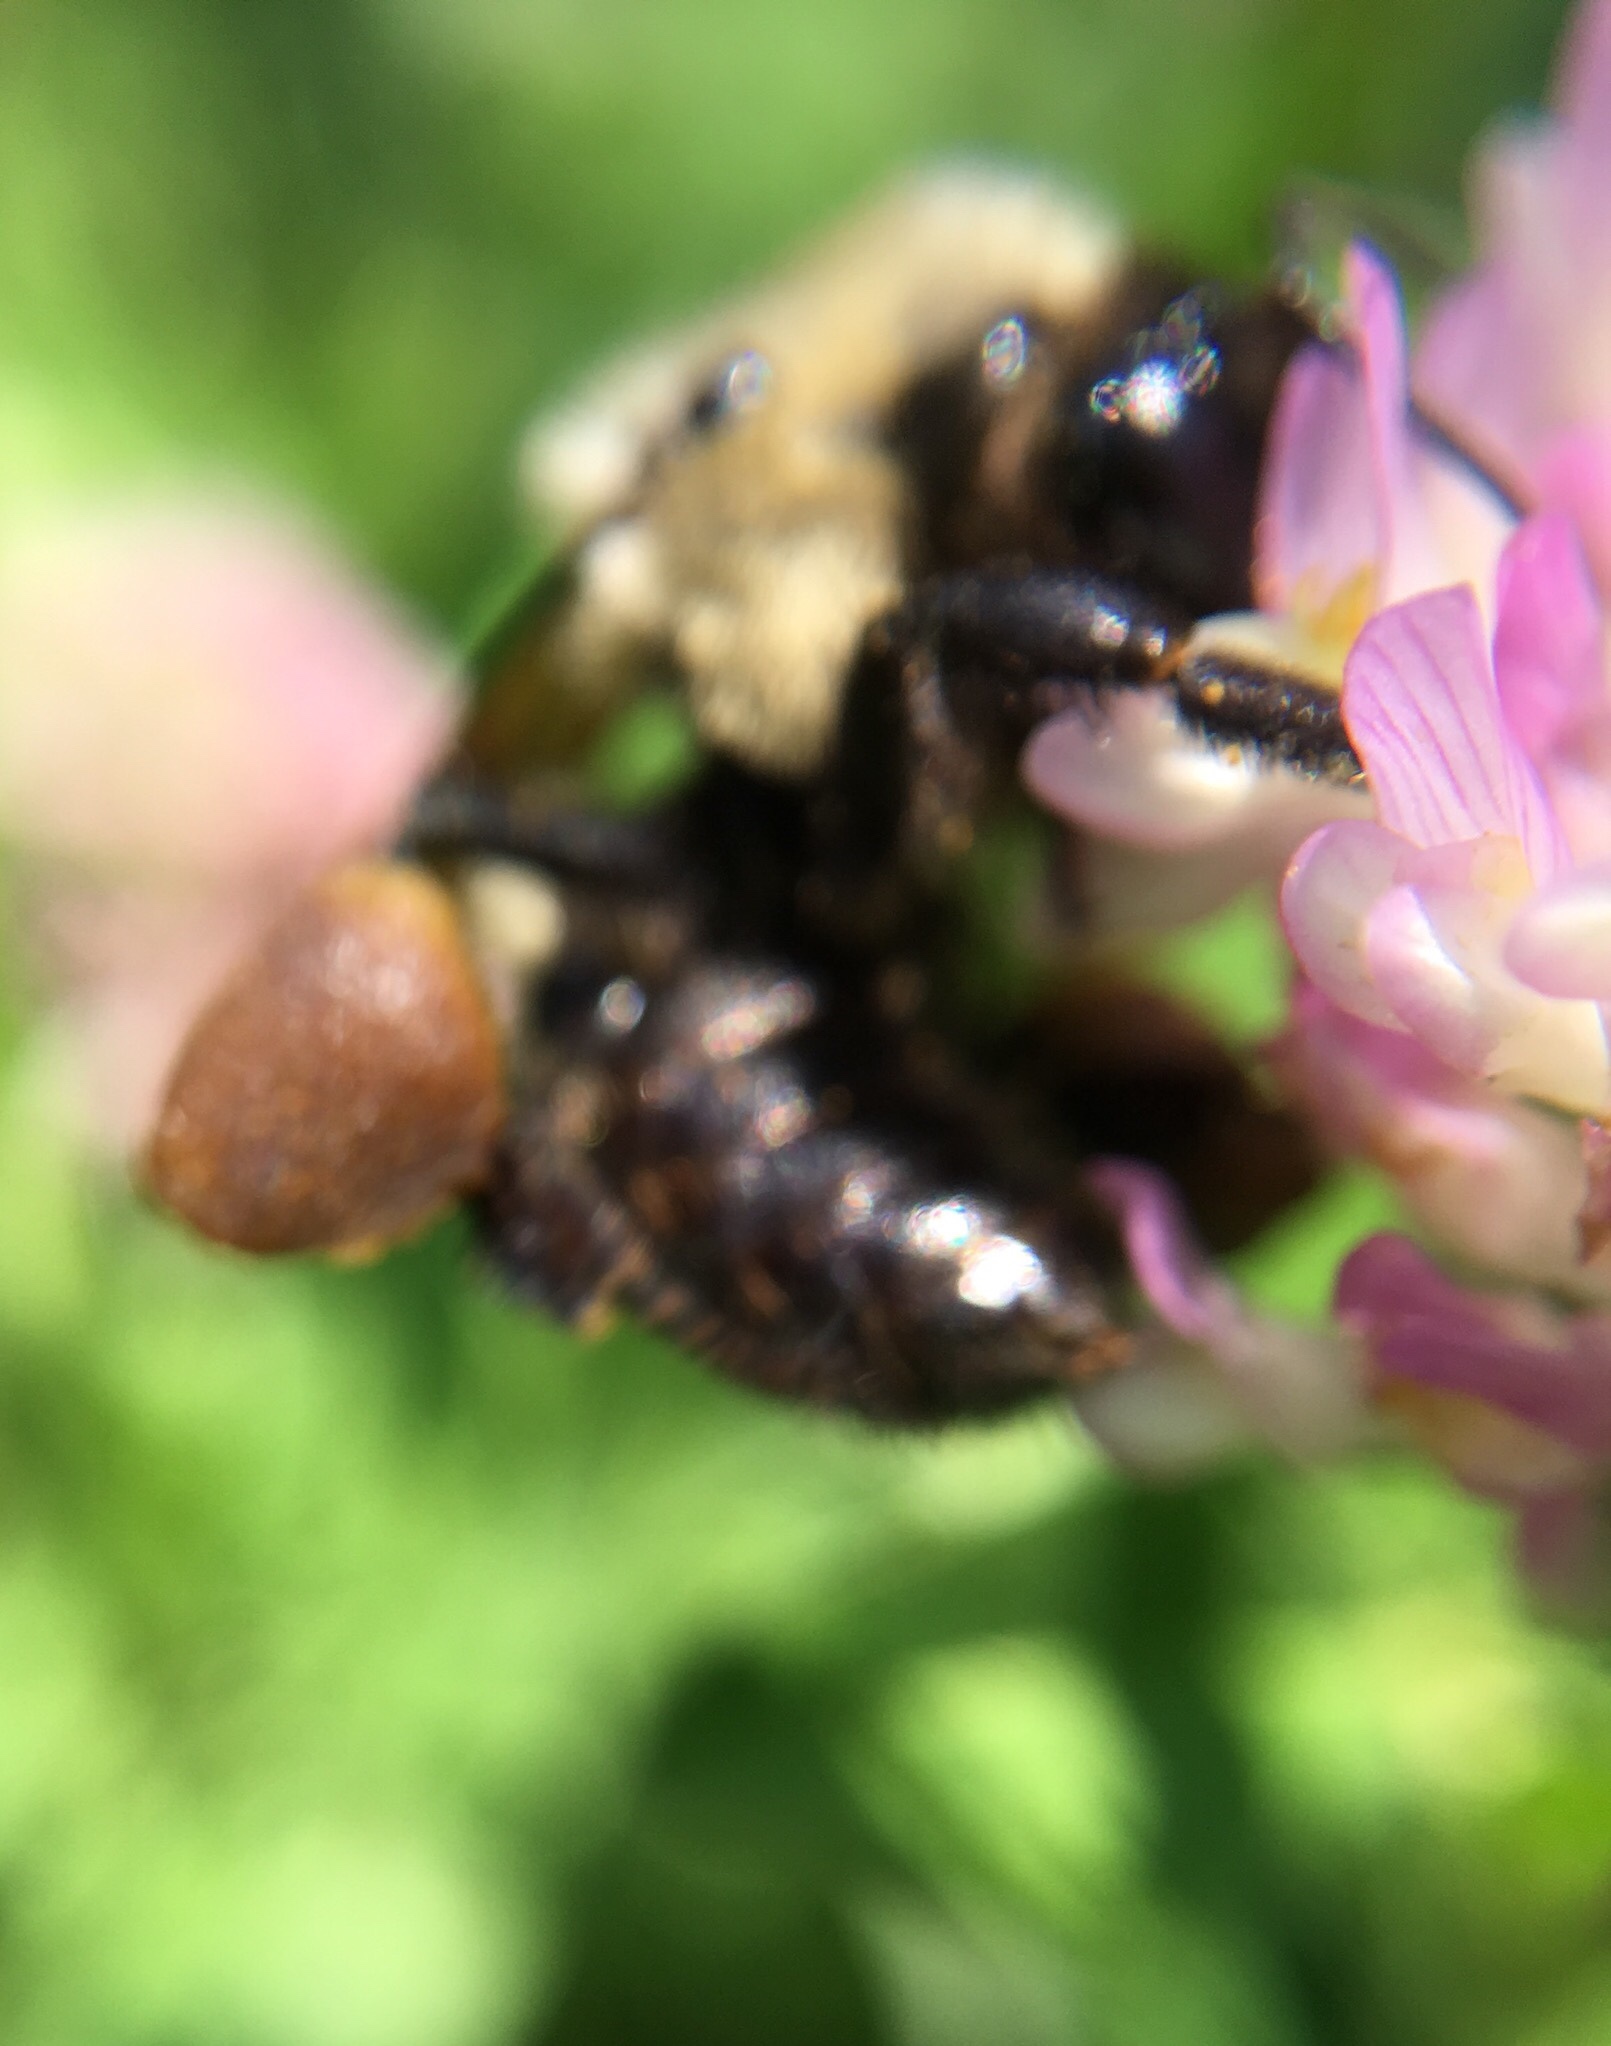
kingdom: Animalia
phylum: Arthropoda
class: Insecta
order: Hymenoptera
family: Apidae
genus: Bombus
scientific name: Bombus griseocollis
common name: Brown-belted bumble bee
